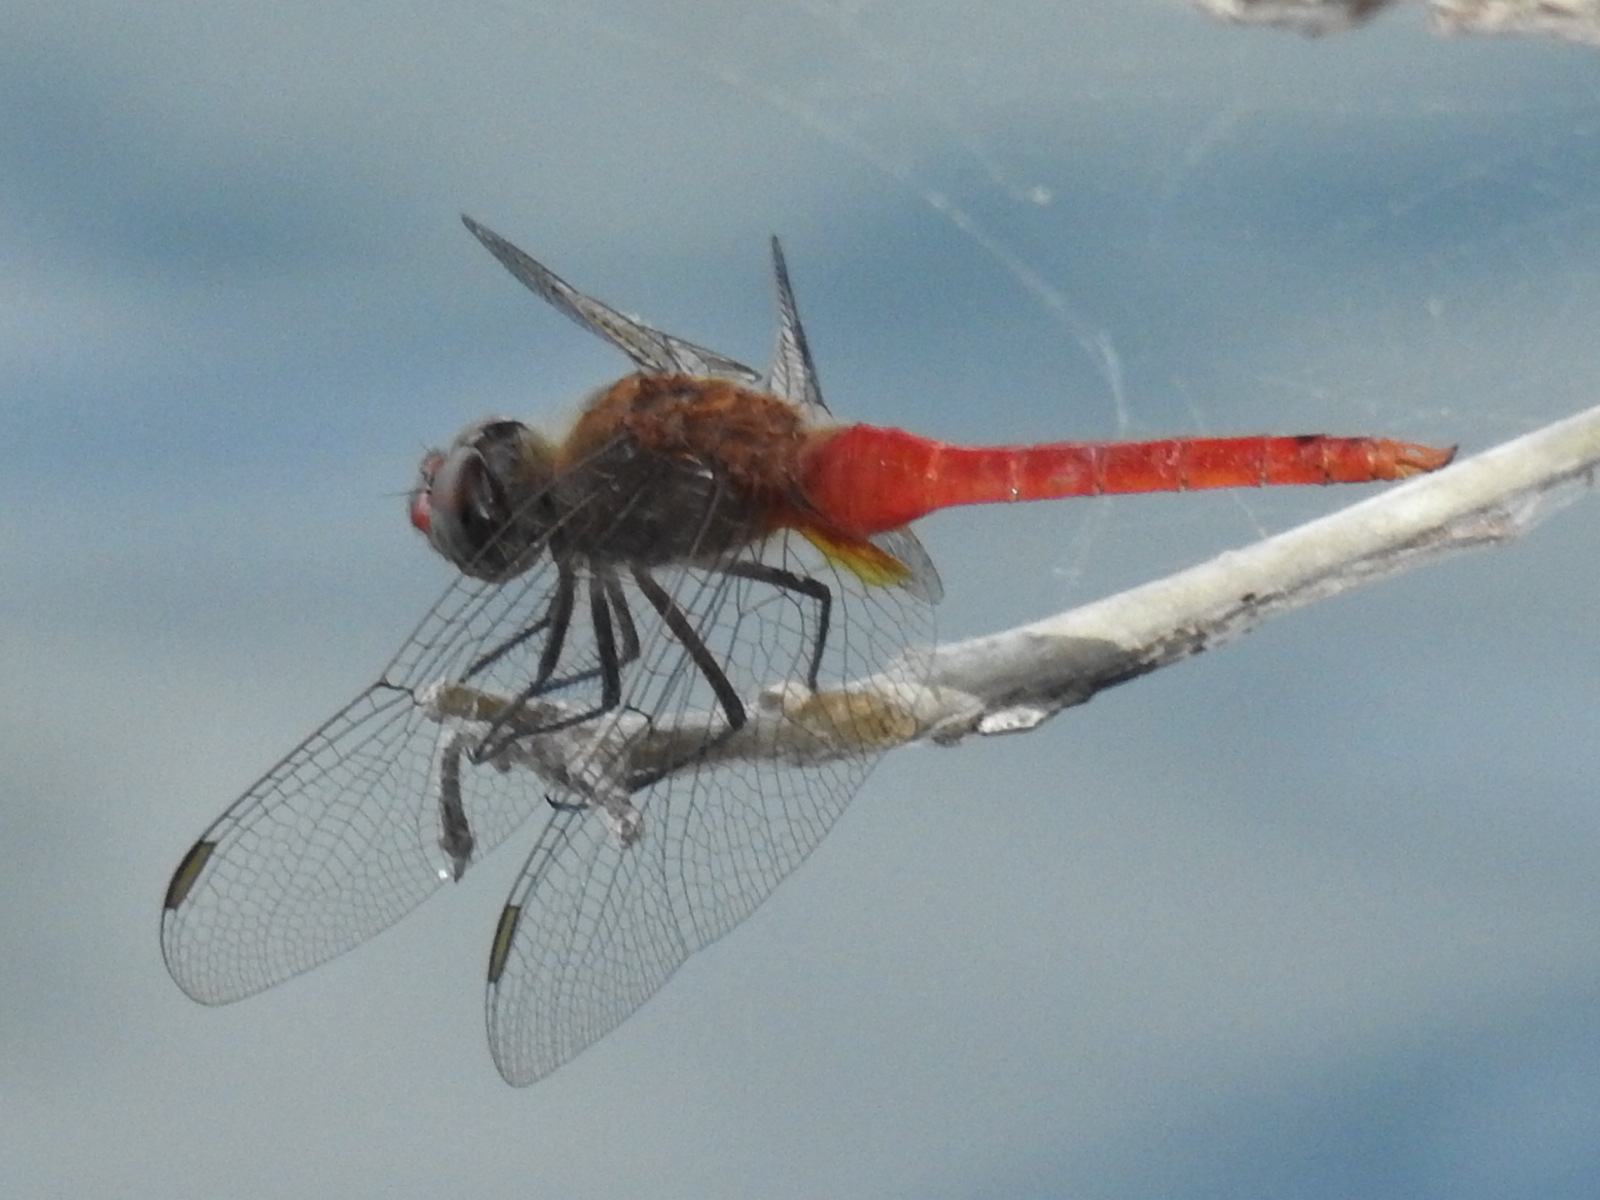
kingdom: Animalia
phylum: Arthropoda
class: Insecta
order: Odonata
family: Libellulidae
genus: Brachymesia
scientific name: Brachymesia furcata
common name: Red-taled pennant
